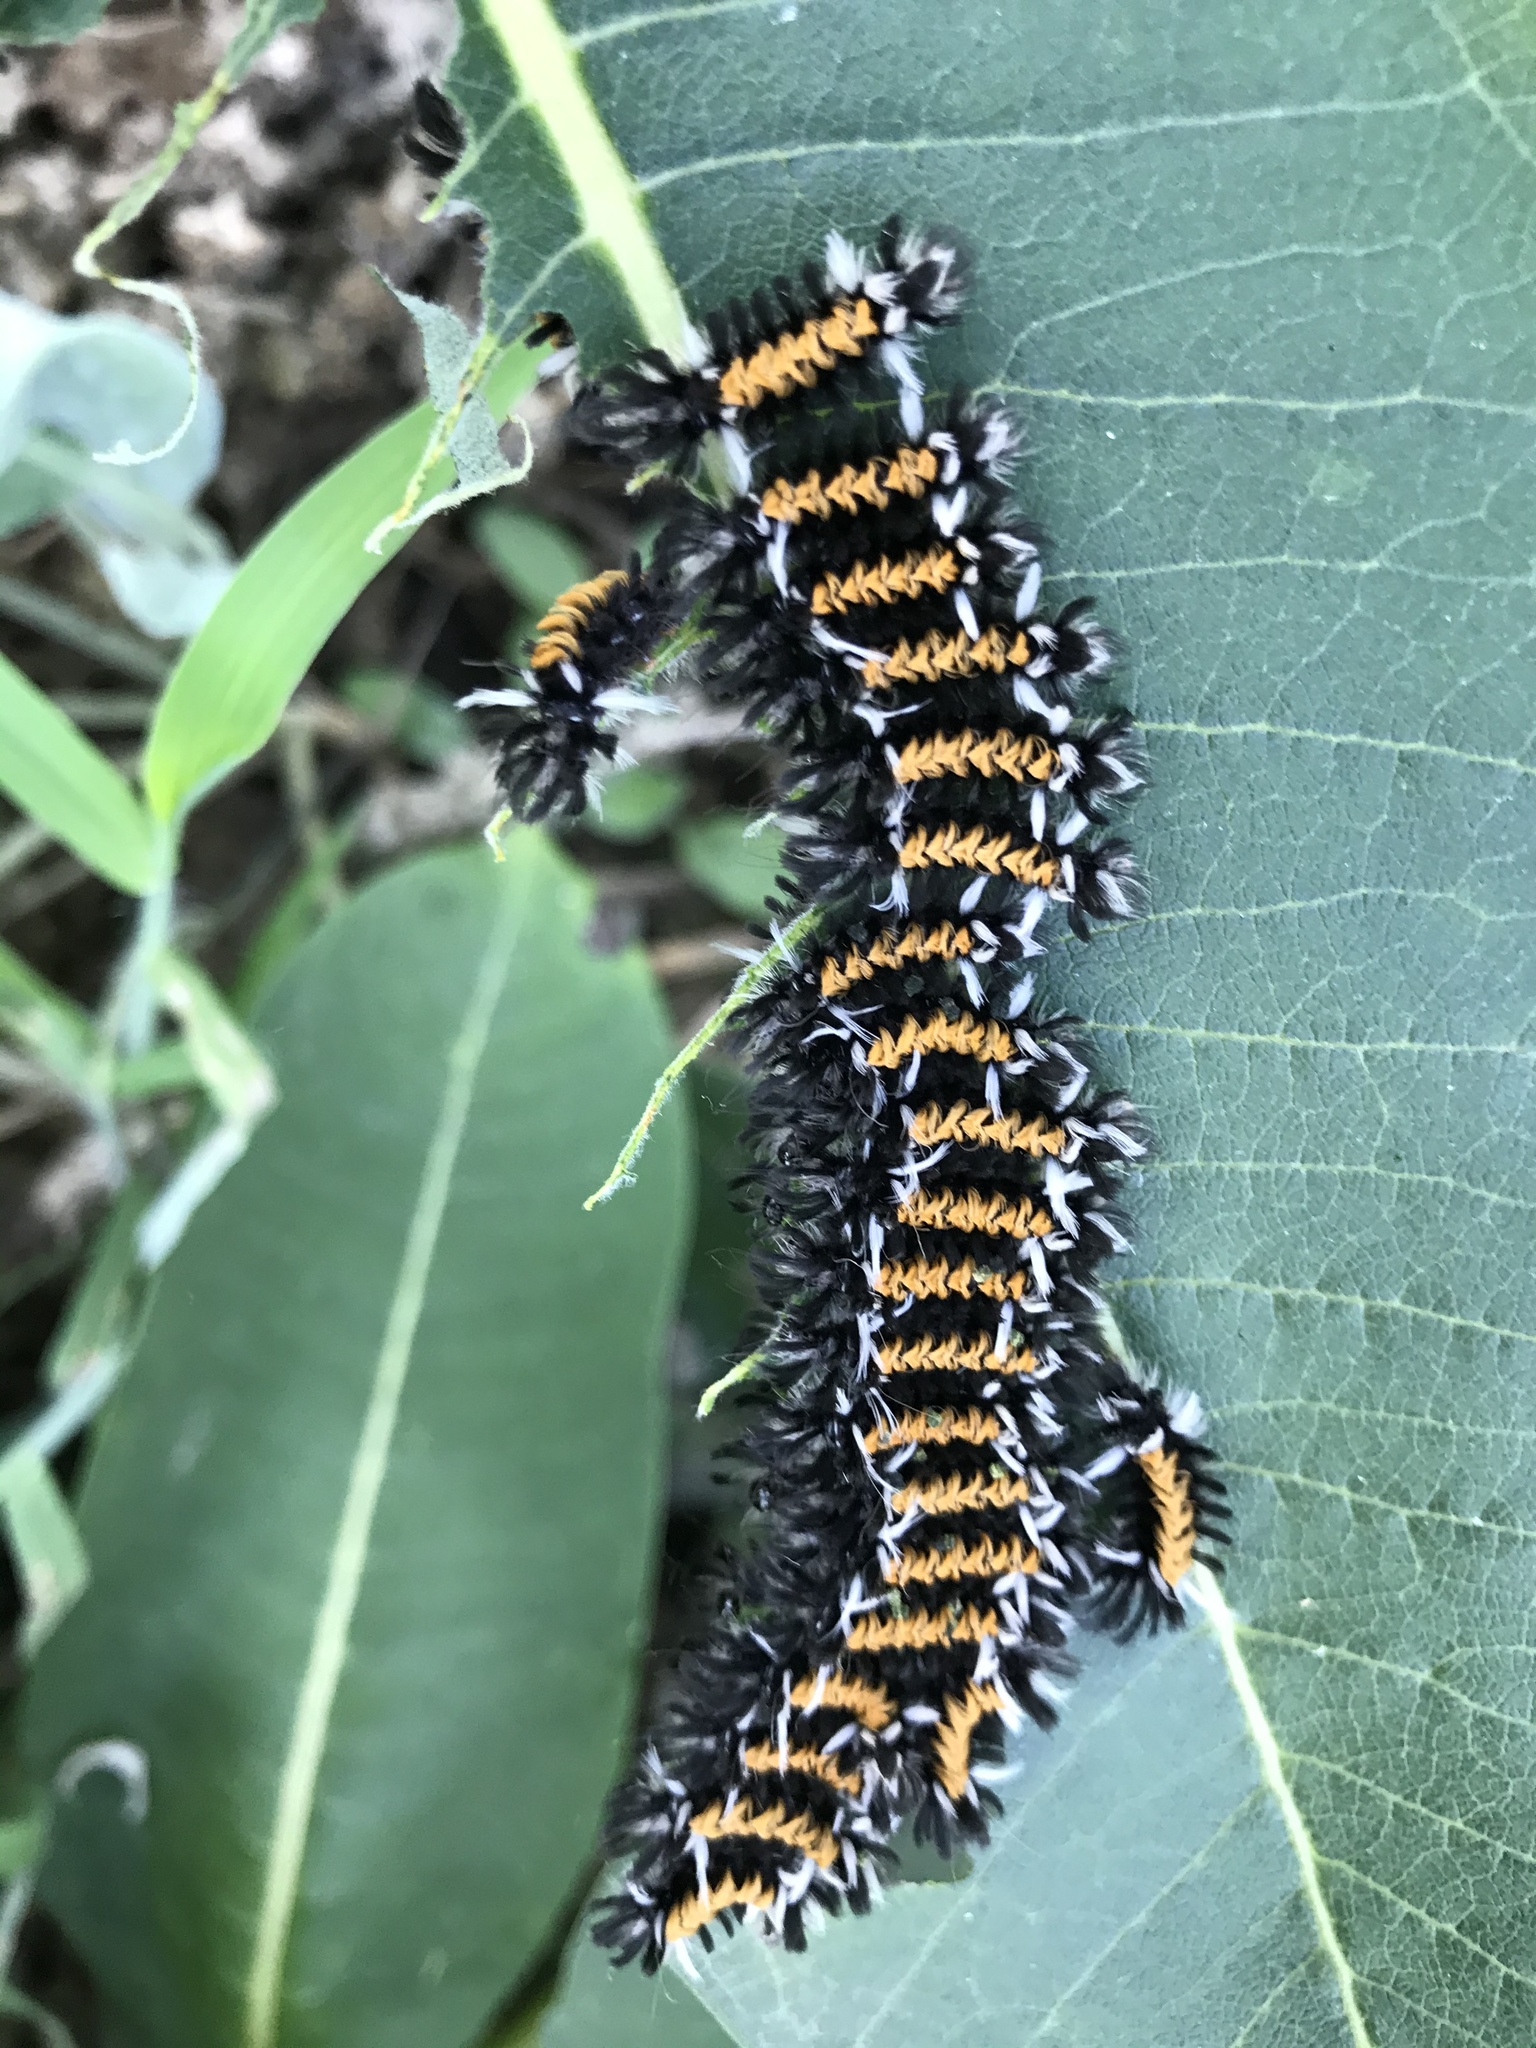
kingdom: Animalia
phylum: Arthropoda
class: Insecta
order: Lepidoptera
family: Erebidae
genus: Euchaetes
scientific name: Euchaetes egle
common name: Milkweed tussock moth
